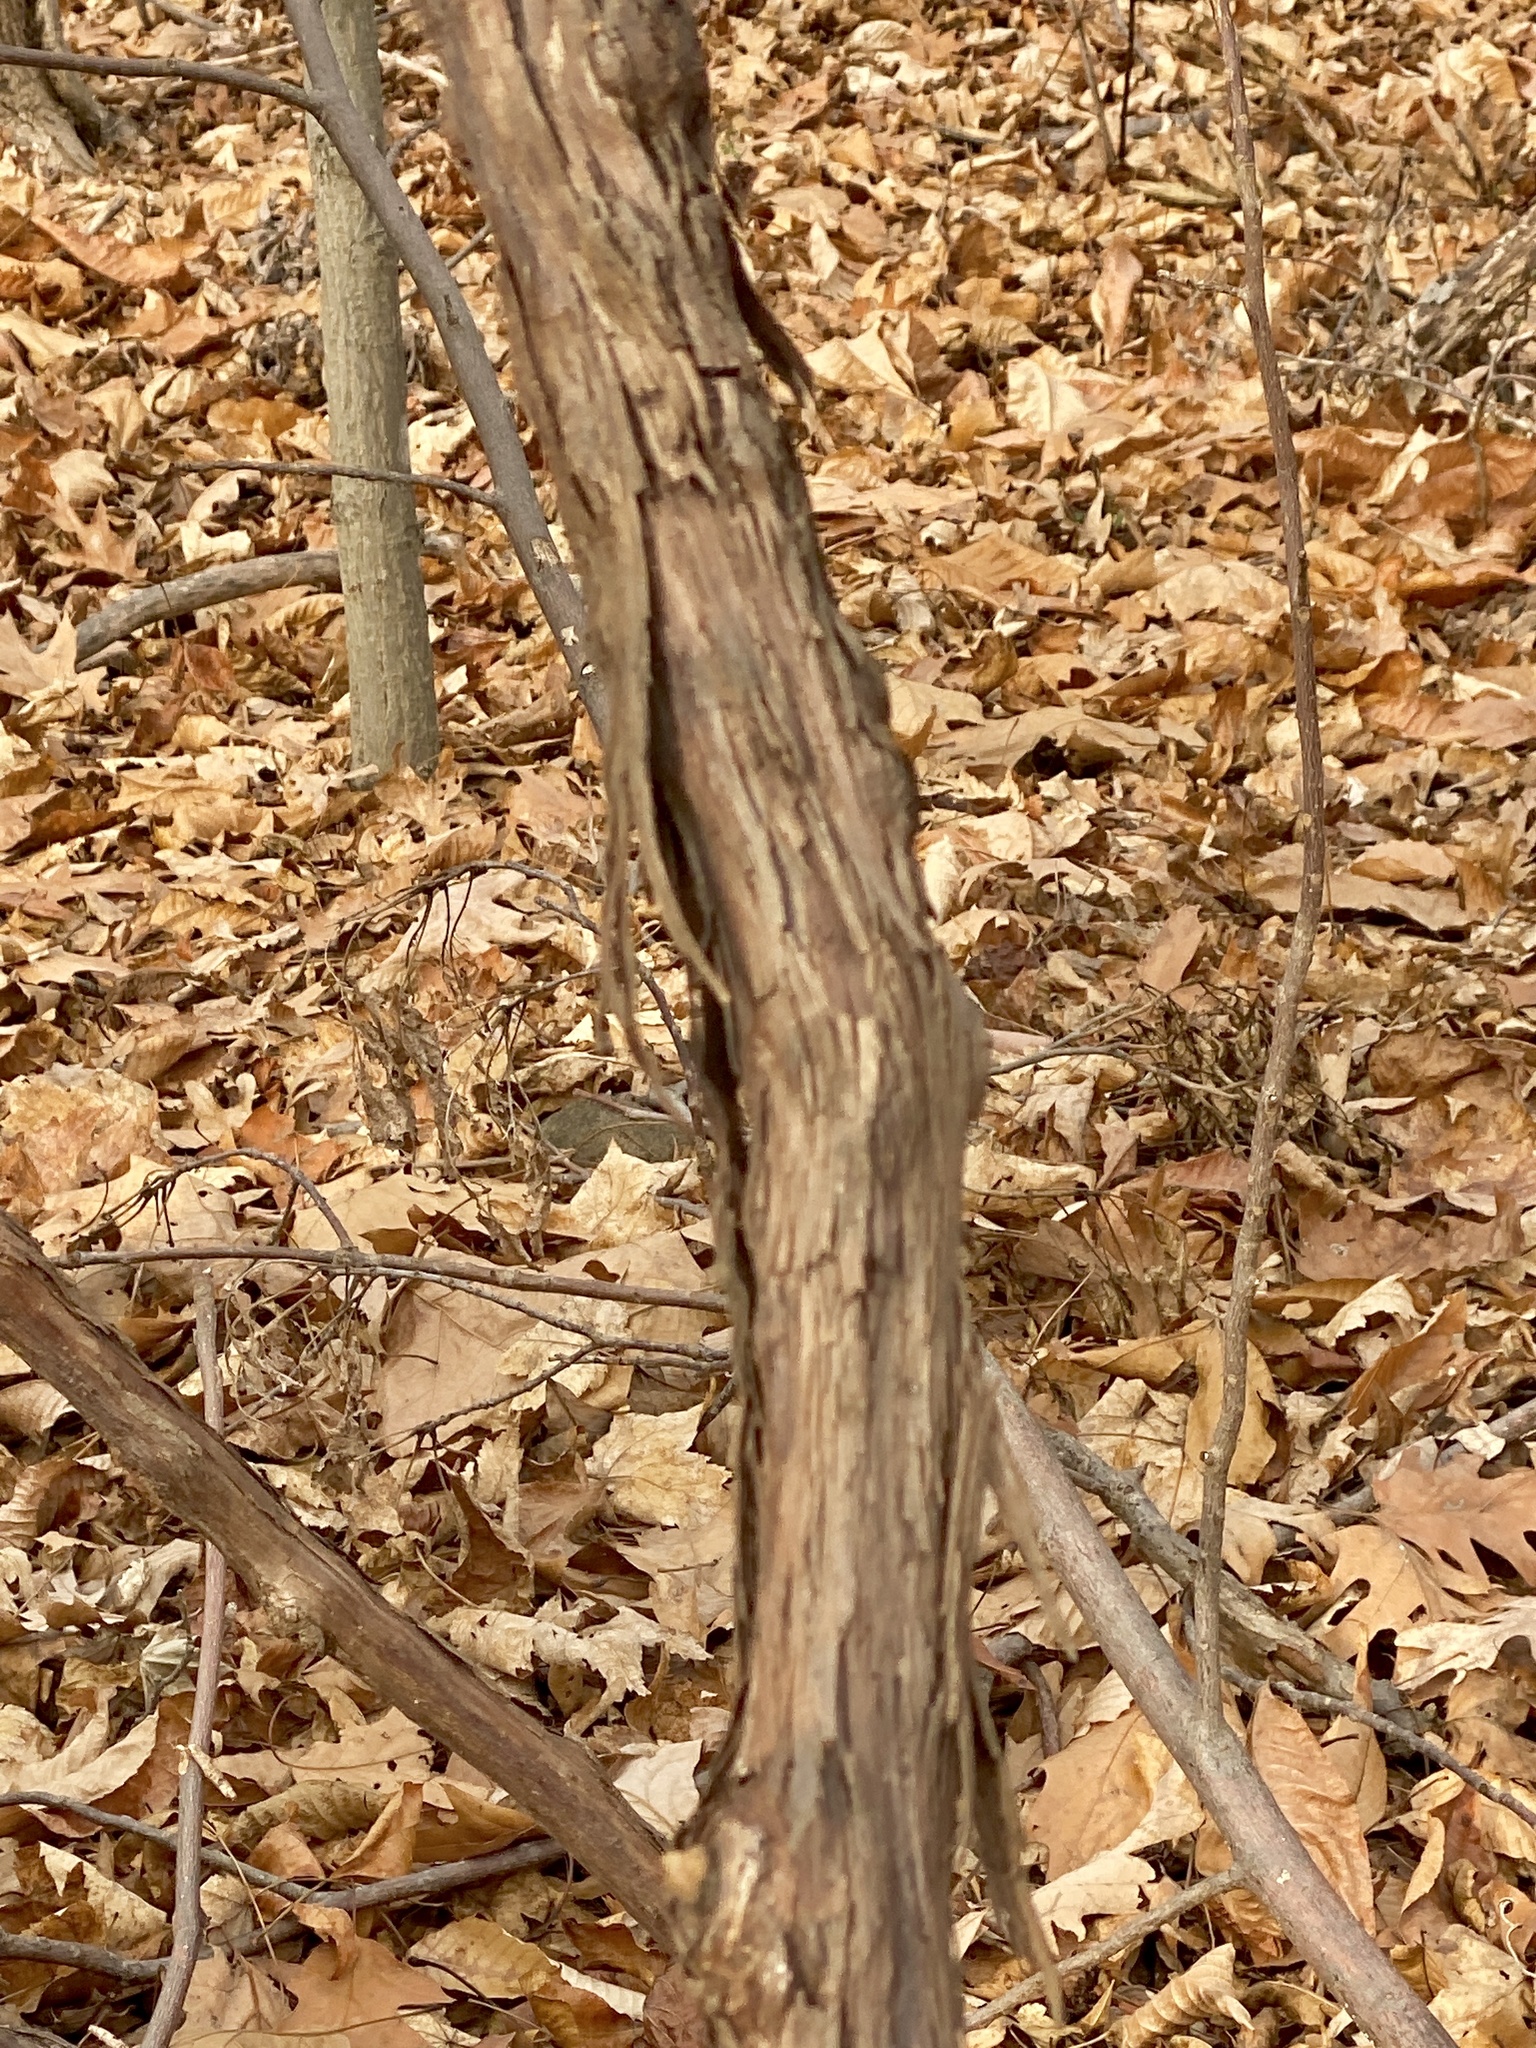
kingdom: Plantae
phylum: Tracheophyta
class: Magnoliopsida
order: Vitales
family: Vitaceae
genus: Vitis
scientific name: Vitis
